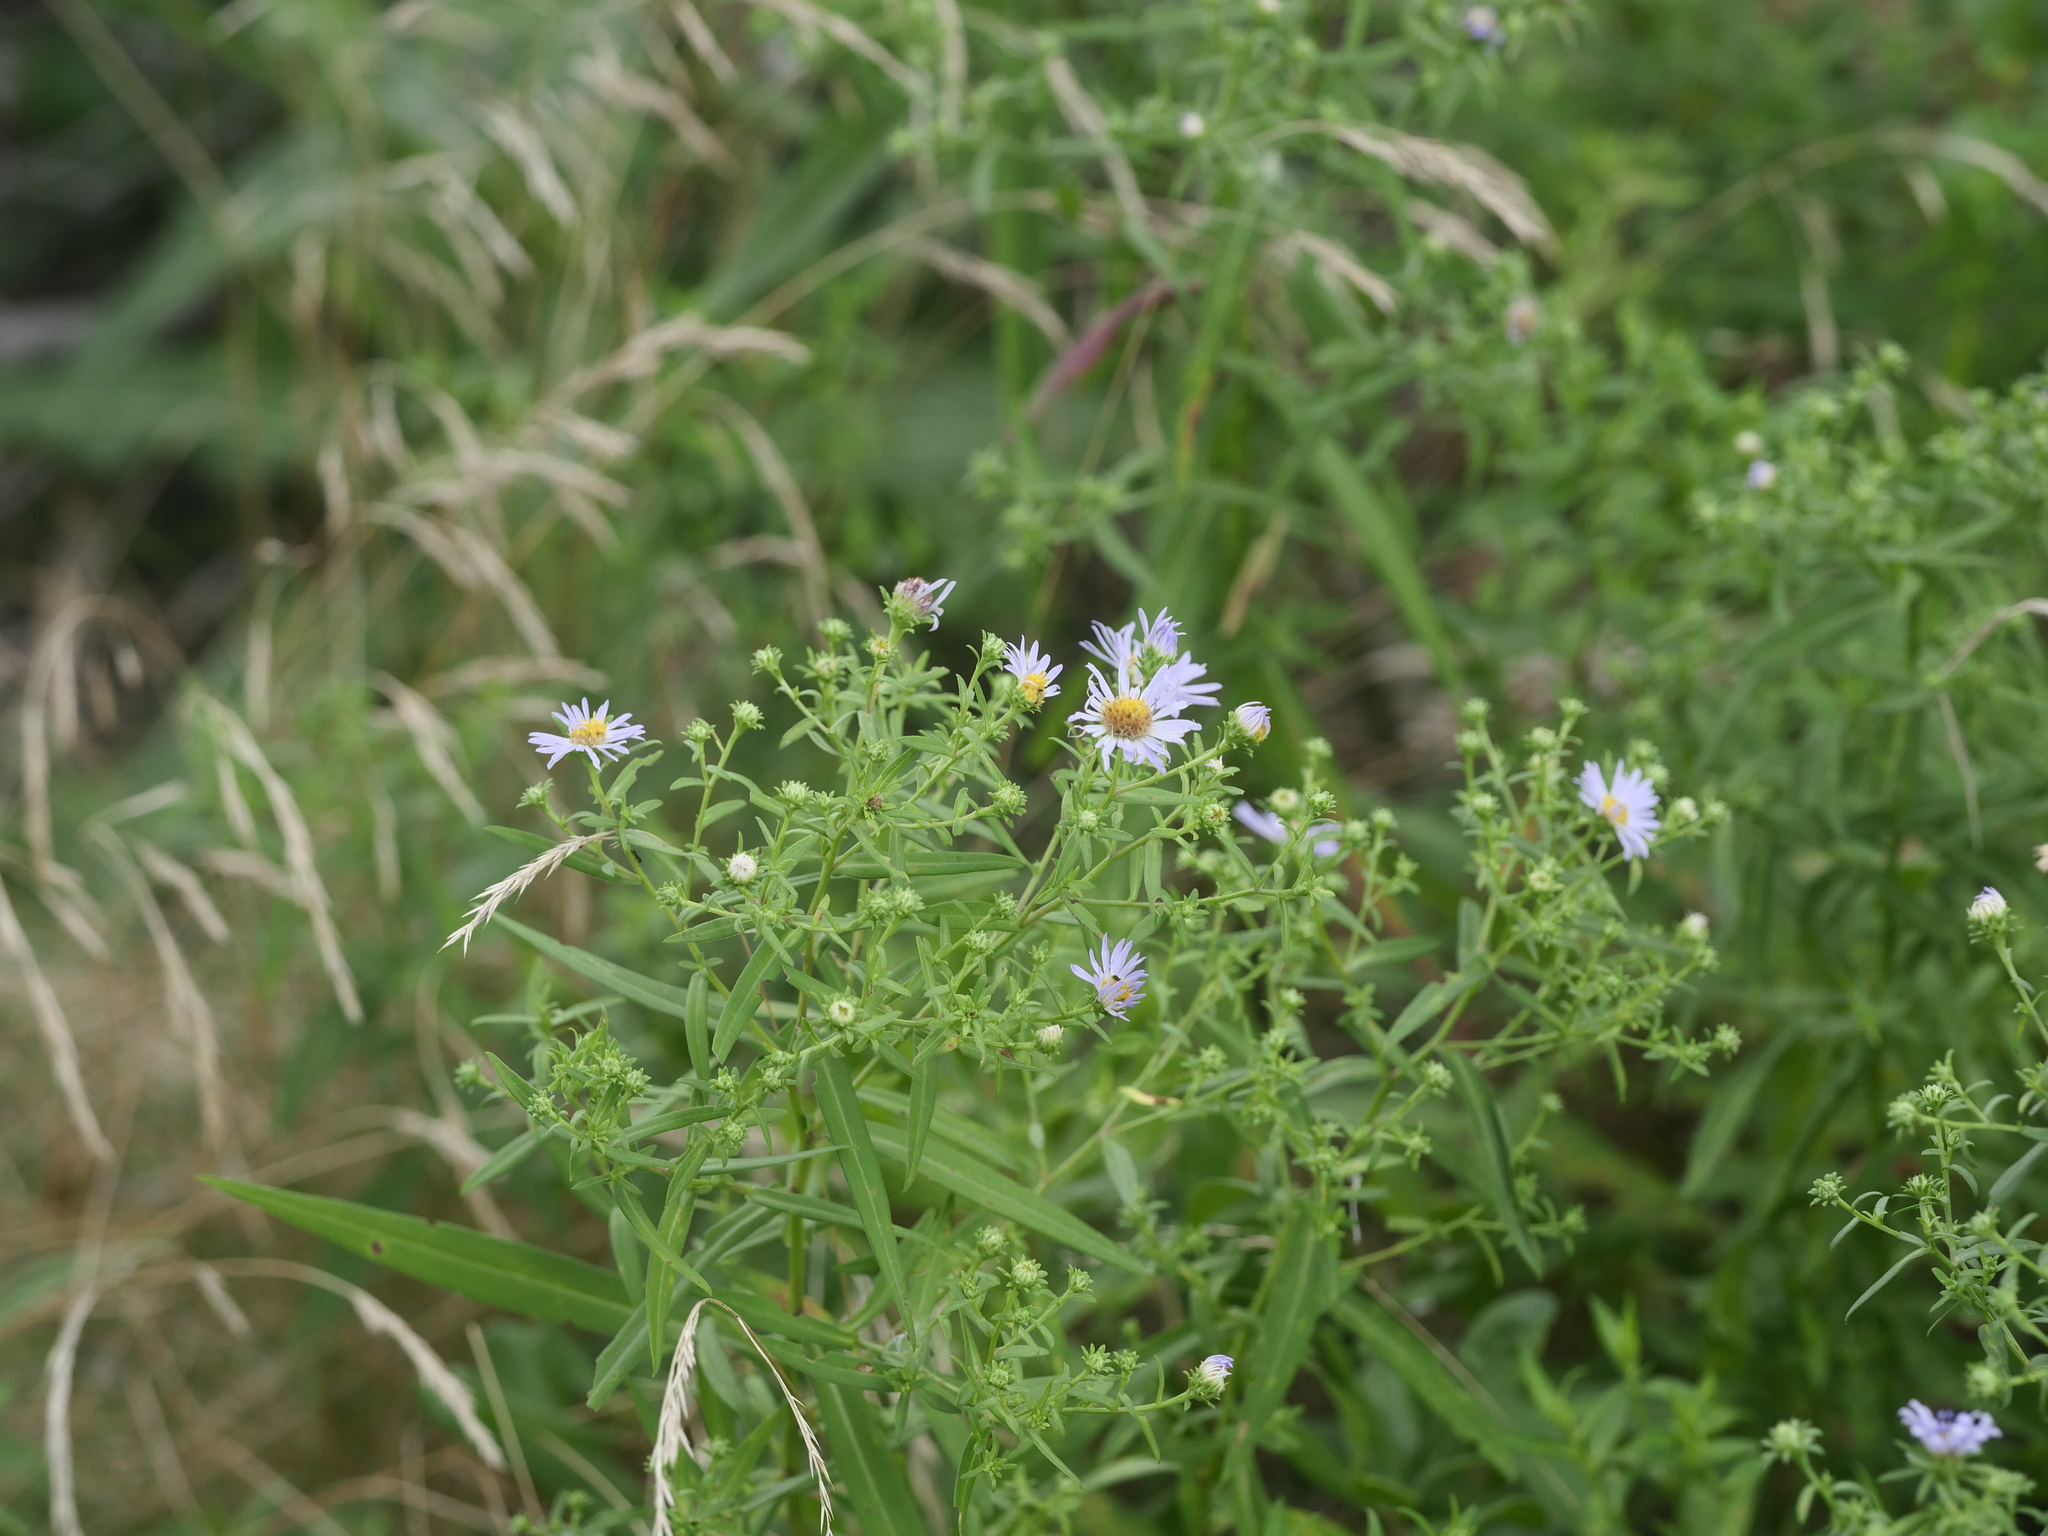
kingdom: Plantae
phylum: Tracheophyta
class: Magnoliopsida
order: Asterales
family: Asteraceae
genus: Symphyotrichum
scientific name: Symphyotrichum novi-belgii
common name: Michaelmas daisy
